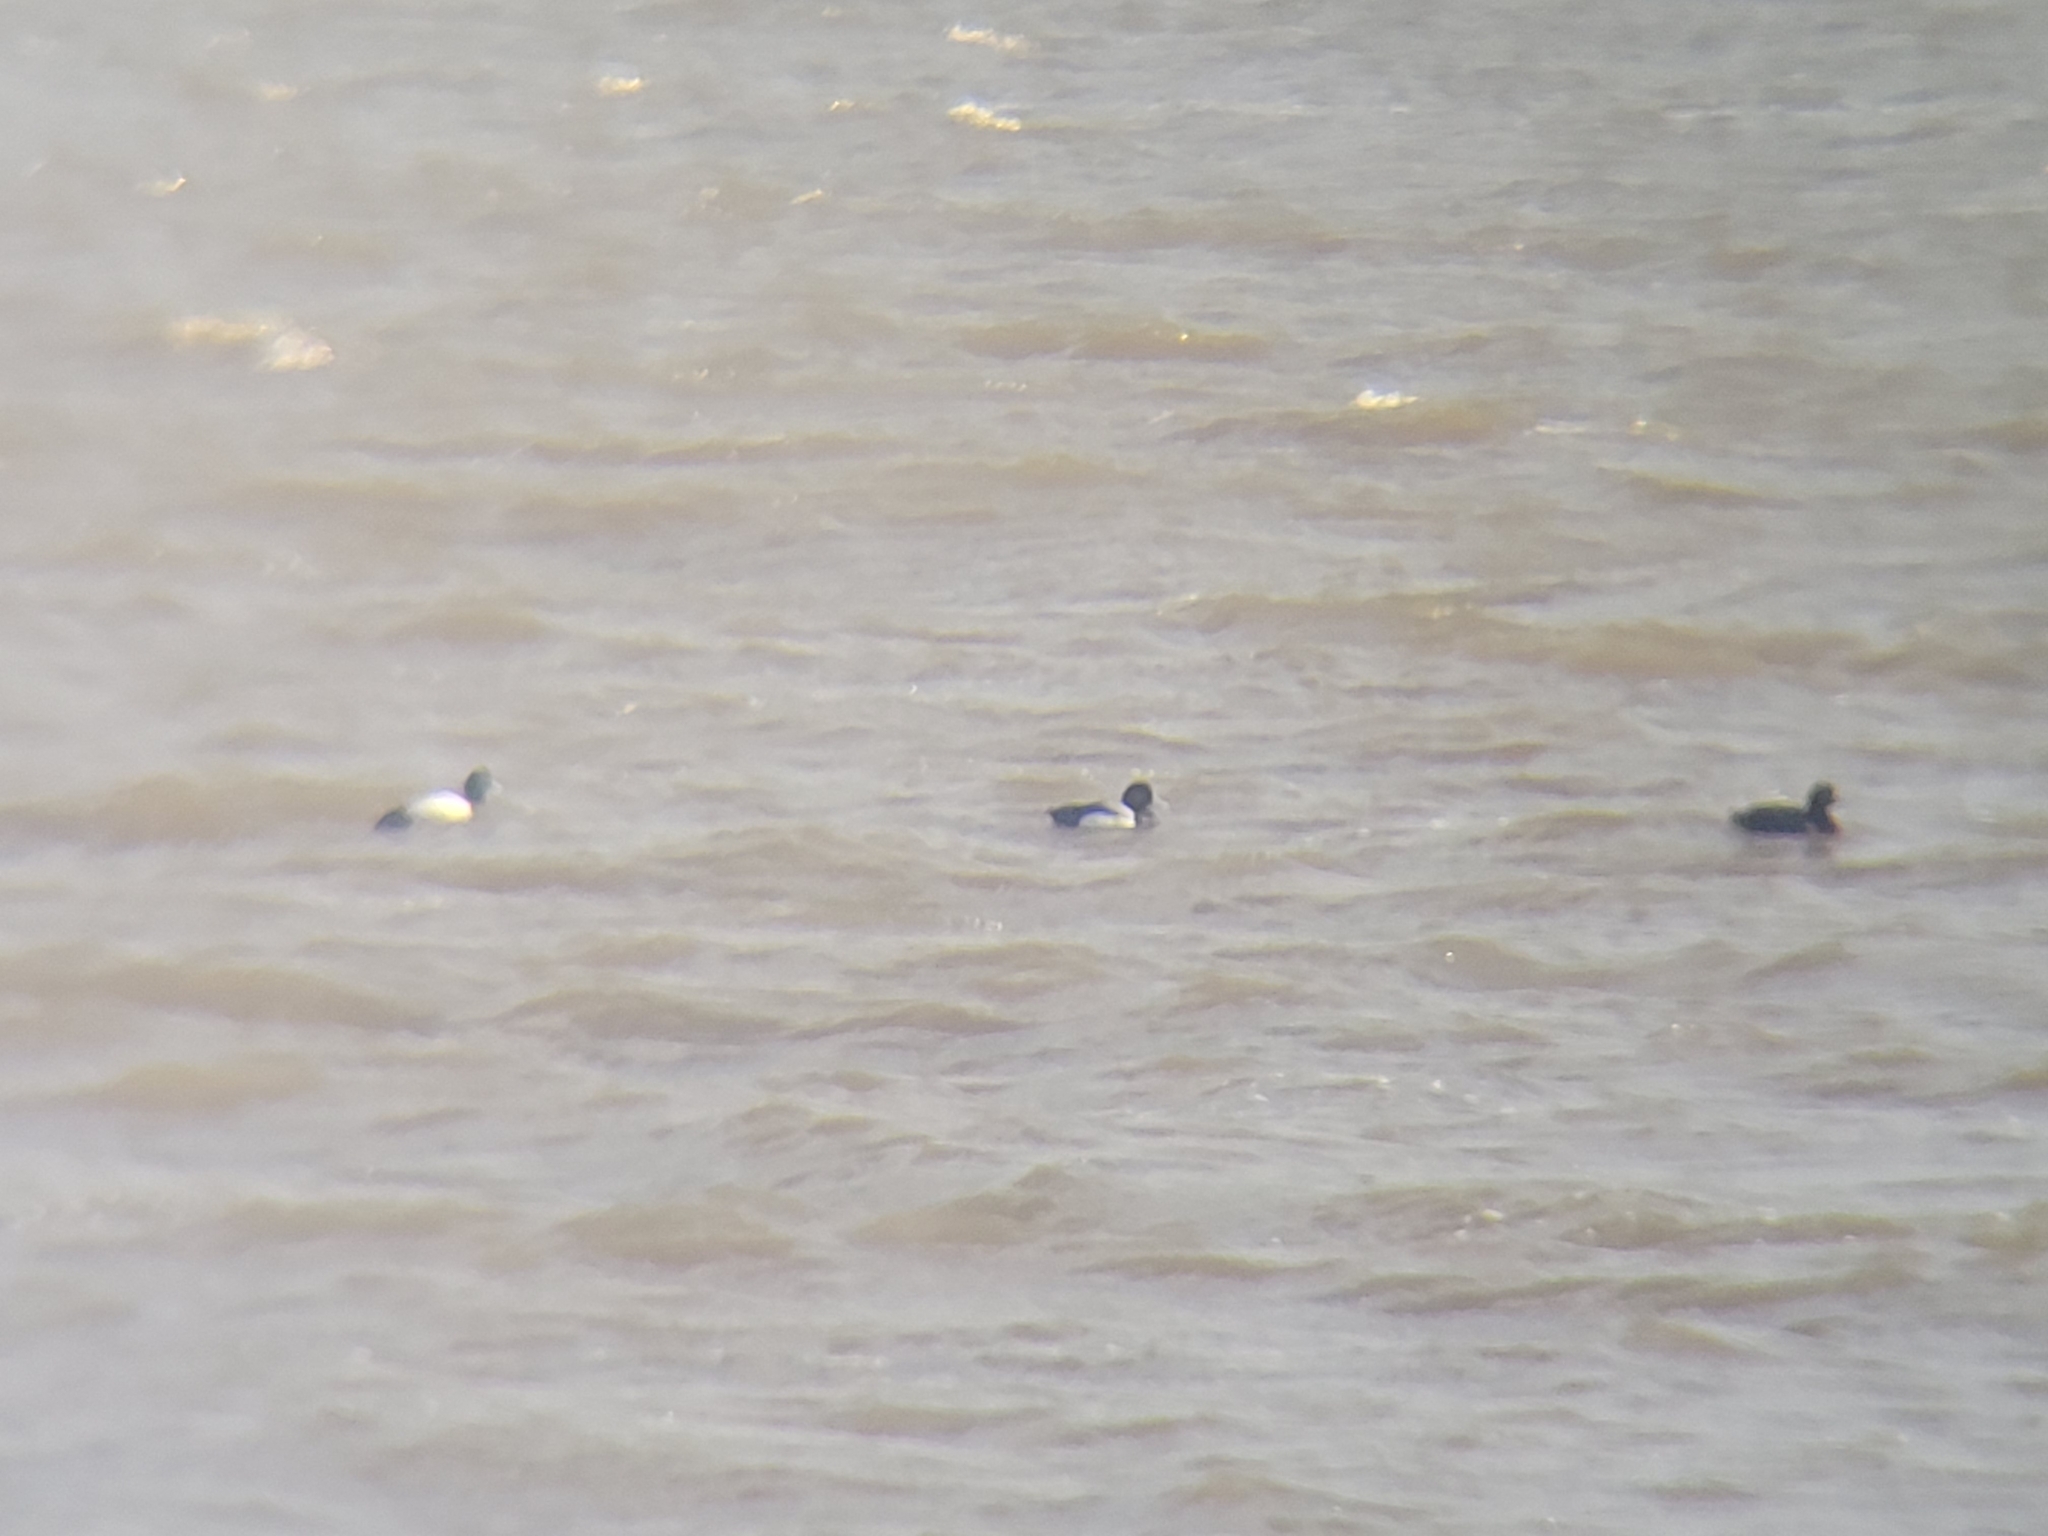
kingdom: Animalia
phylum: Chordata
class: Aves
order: Anseriformes
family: Anatidae
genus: Aythya
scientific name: Aythya marila
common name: Greater scaup
